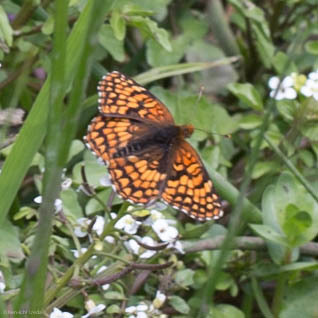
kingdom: Animalia
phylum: Arthropoda
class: Insecta
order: Lepidoptera
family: Nymphalidae
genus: Chlosyne
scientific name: Chlosyne palla
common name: Northern checkerspot
